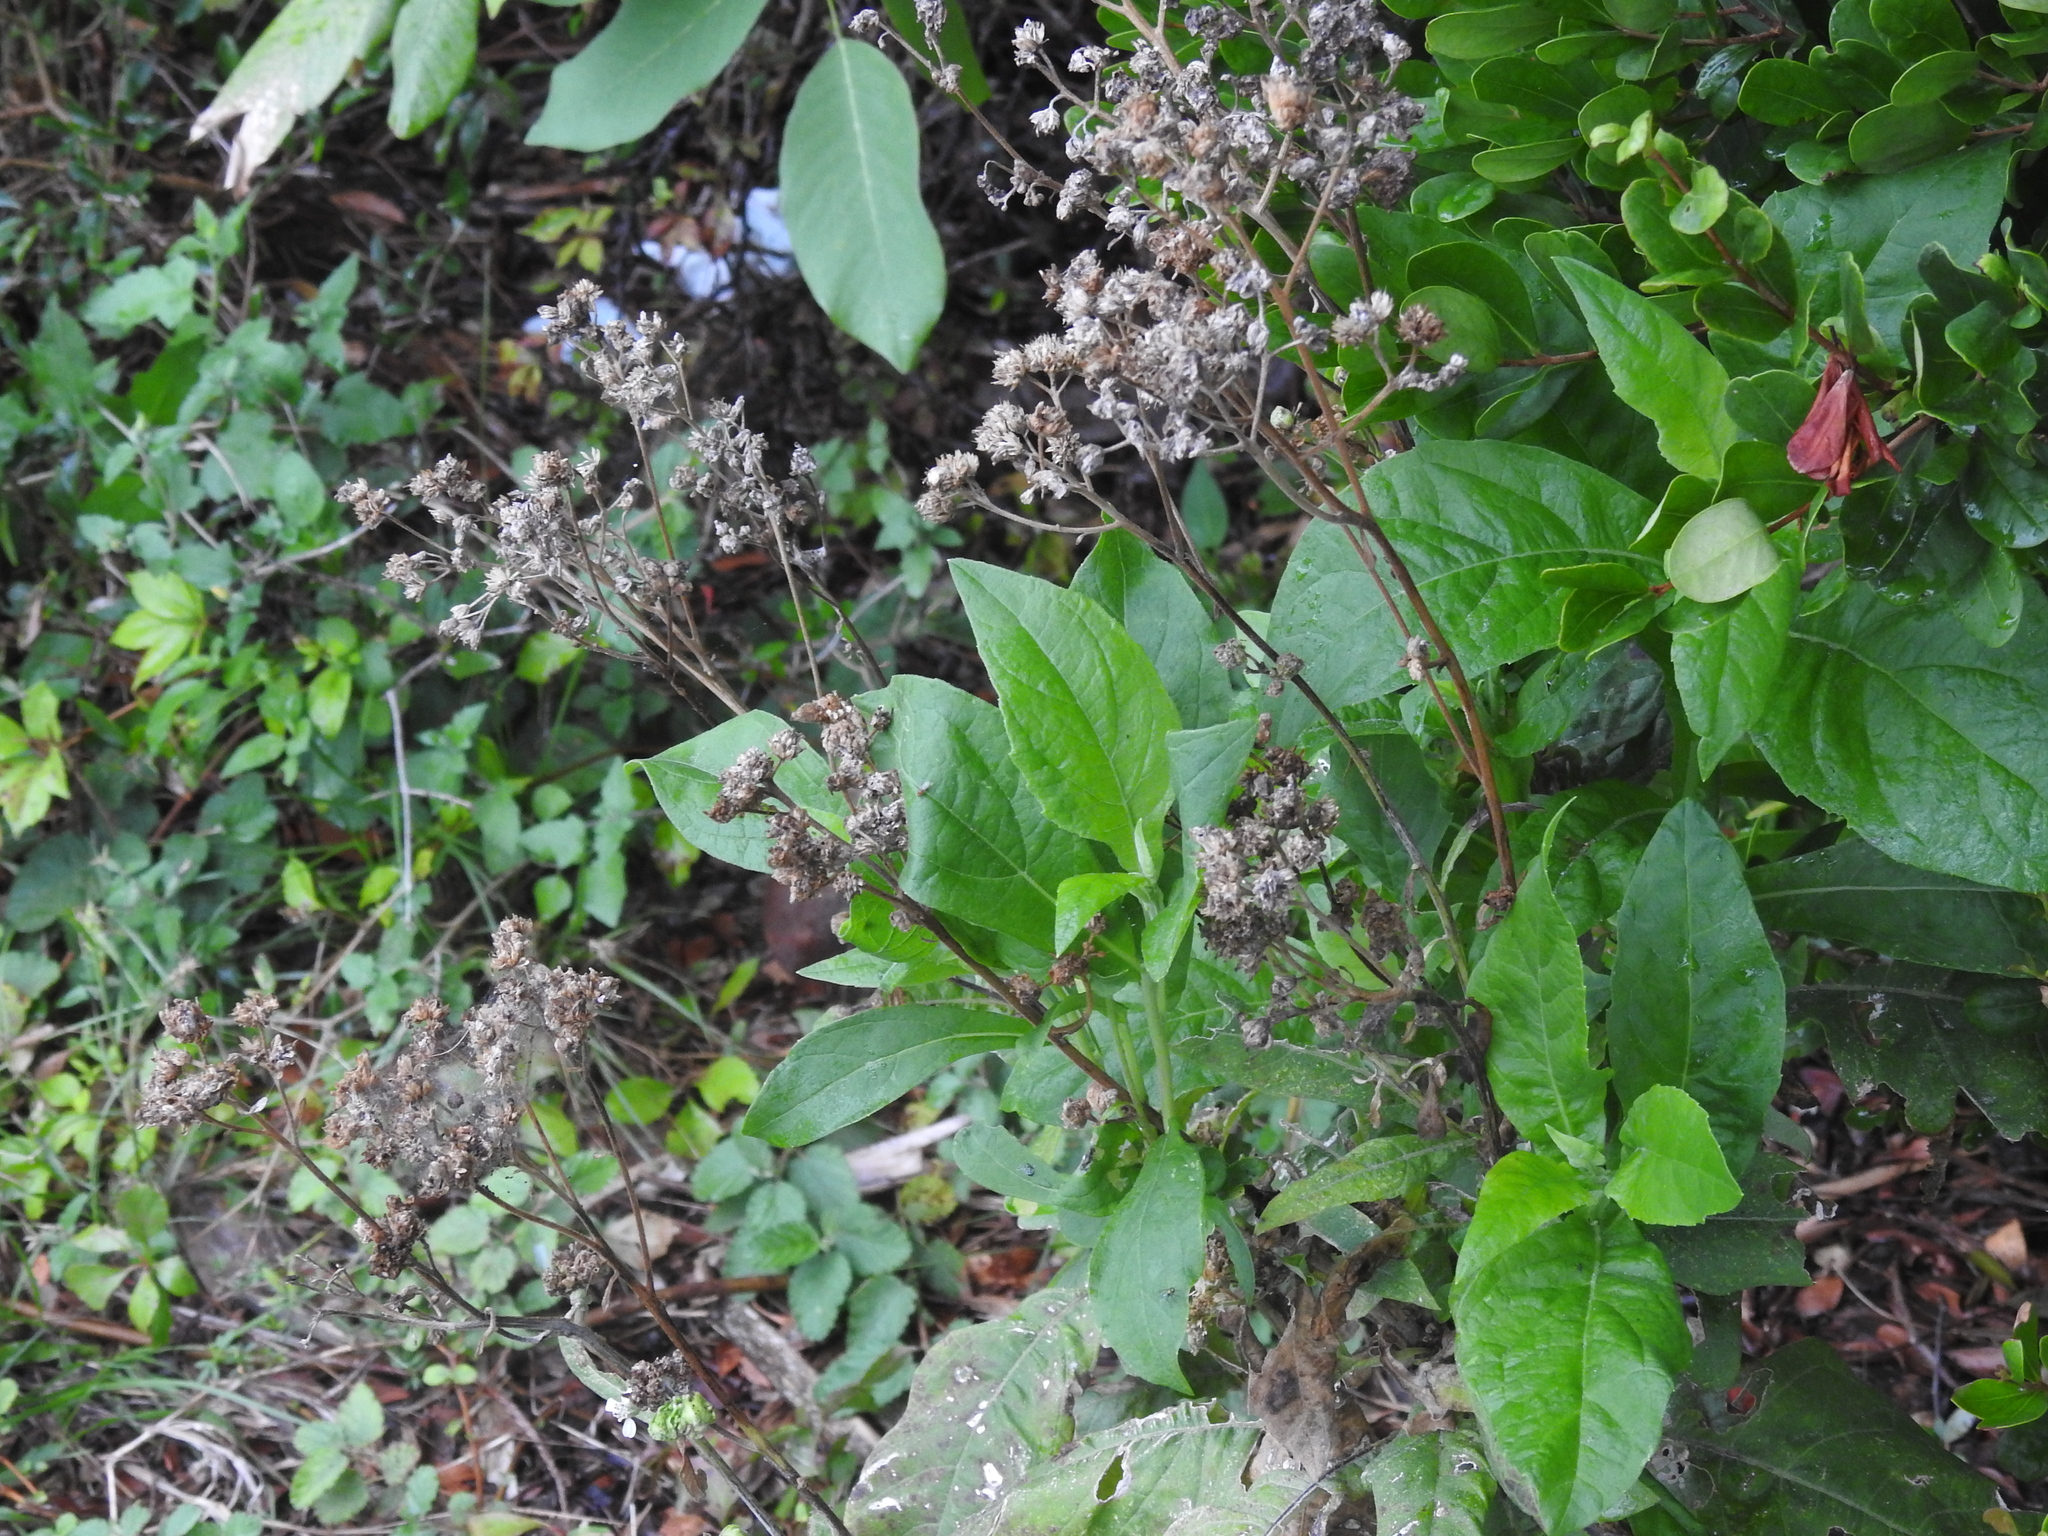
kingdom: Plantae
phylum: Tracheophyta
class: Magnoliopsida
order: Asterales
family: Asteraceae
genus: Verbesina
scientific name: Verbesina virginica
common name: Frostweed
